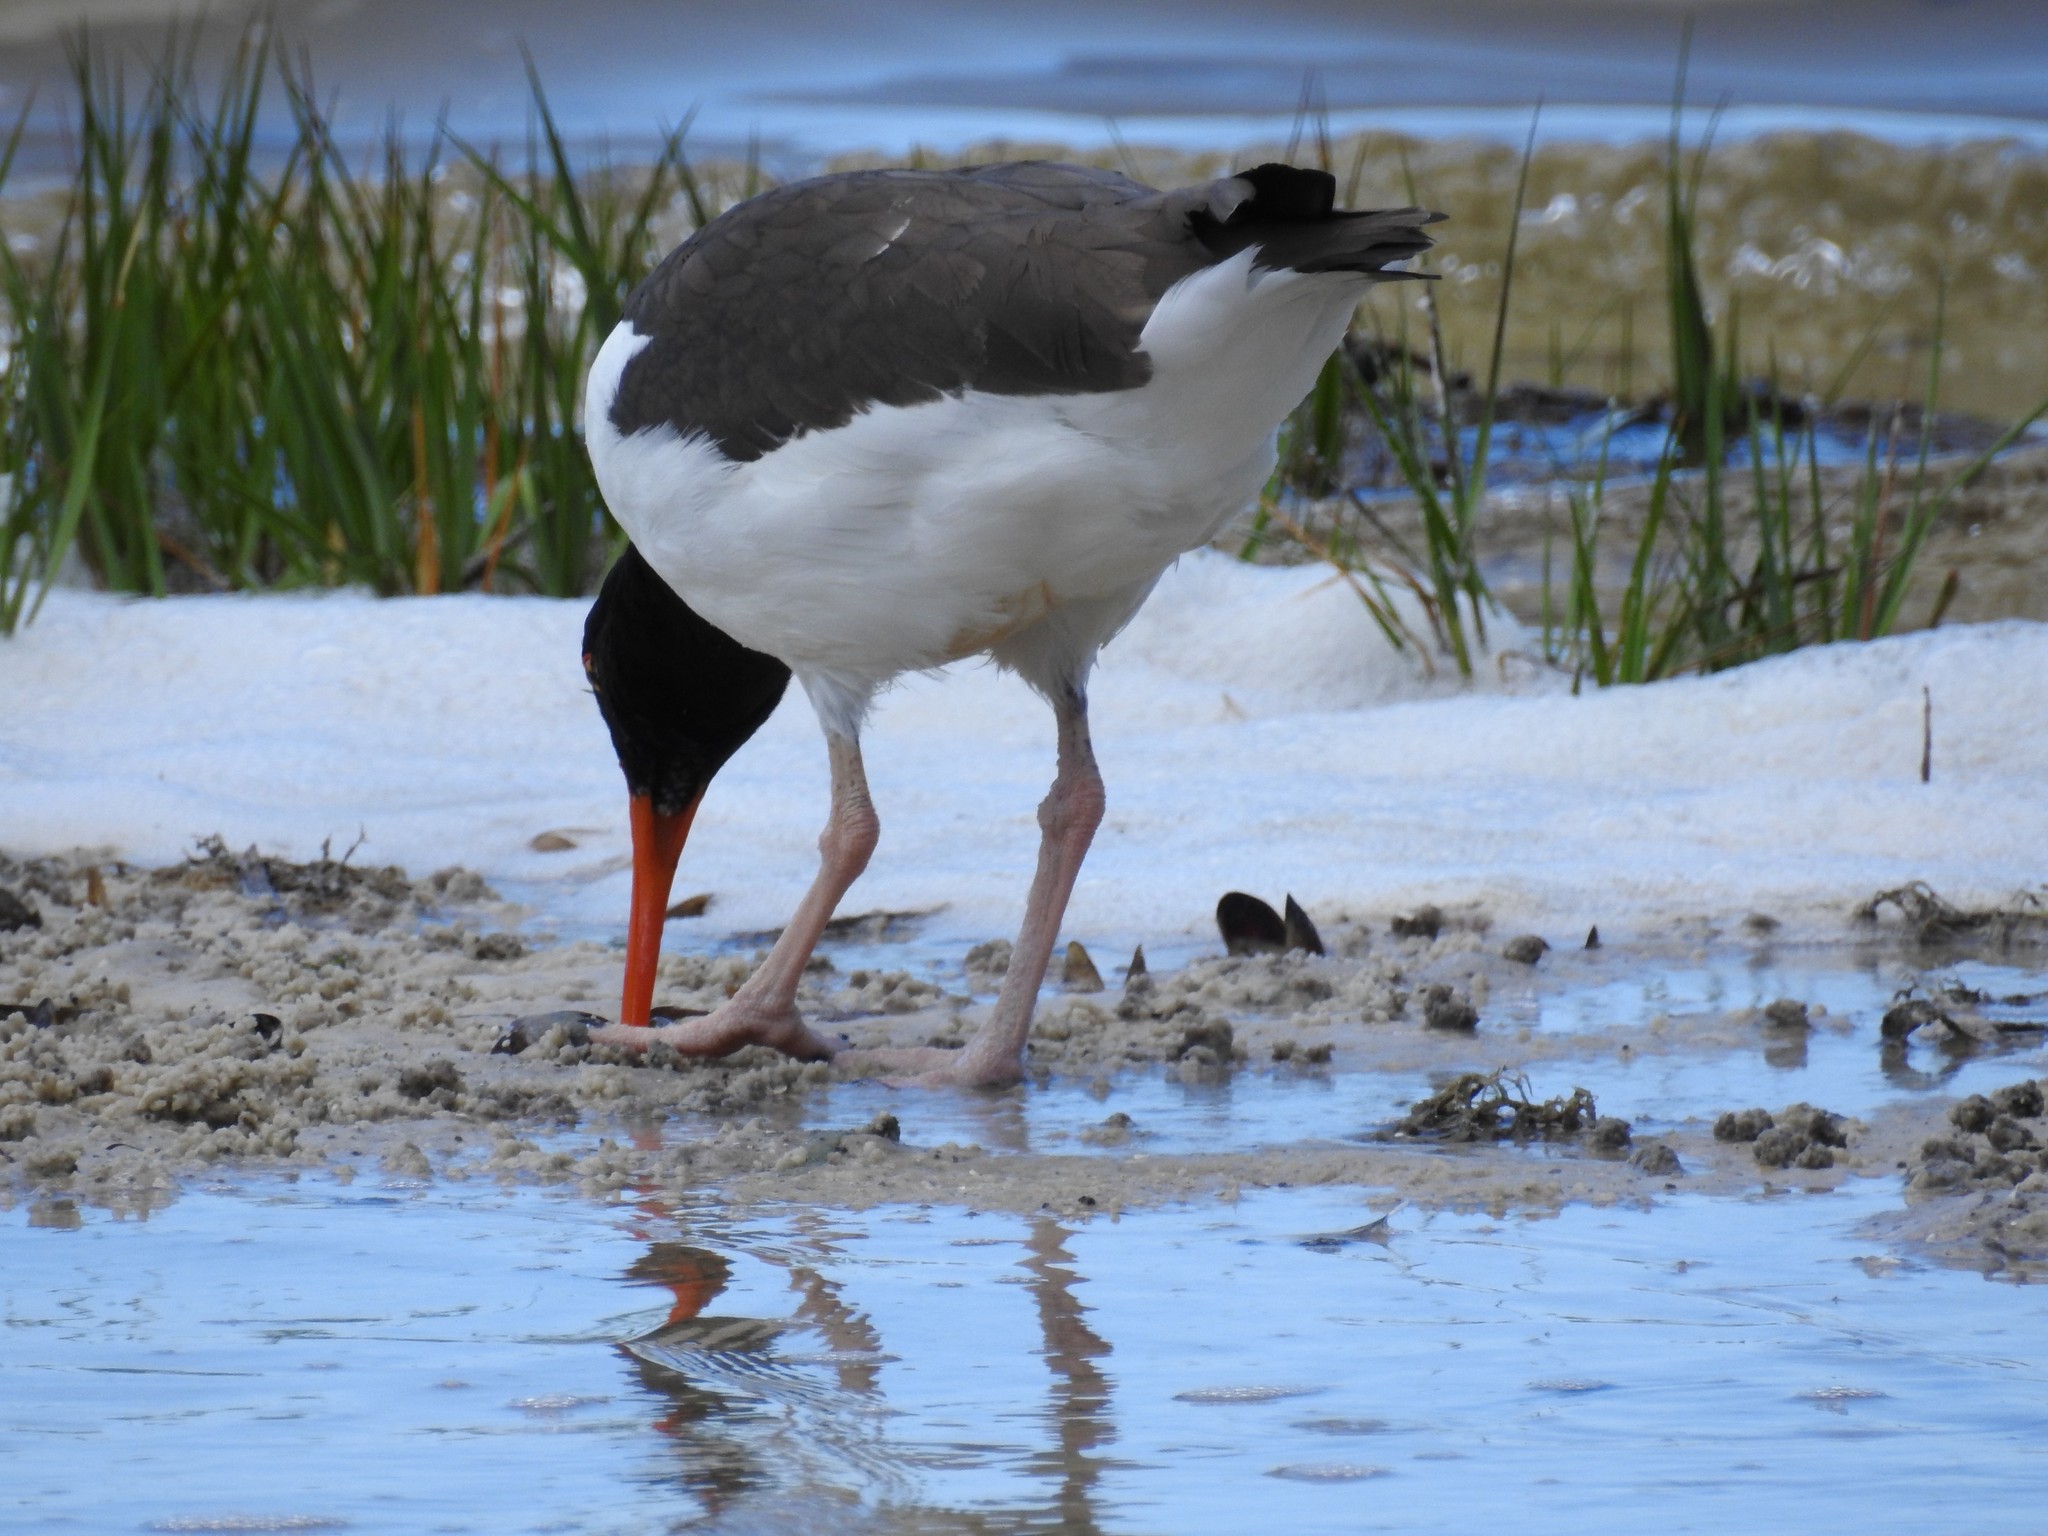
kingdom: Animalia
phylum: Chordata
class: Aves
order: Charadriiformes
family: Haematopodidae
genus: Haematopus
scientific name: Haematopus palliatus
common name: American oystercatcher
